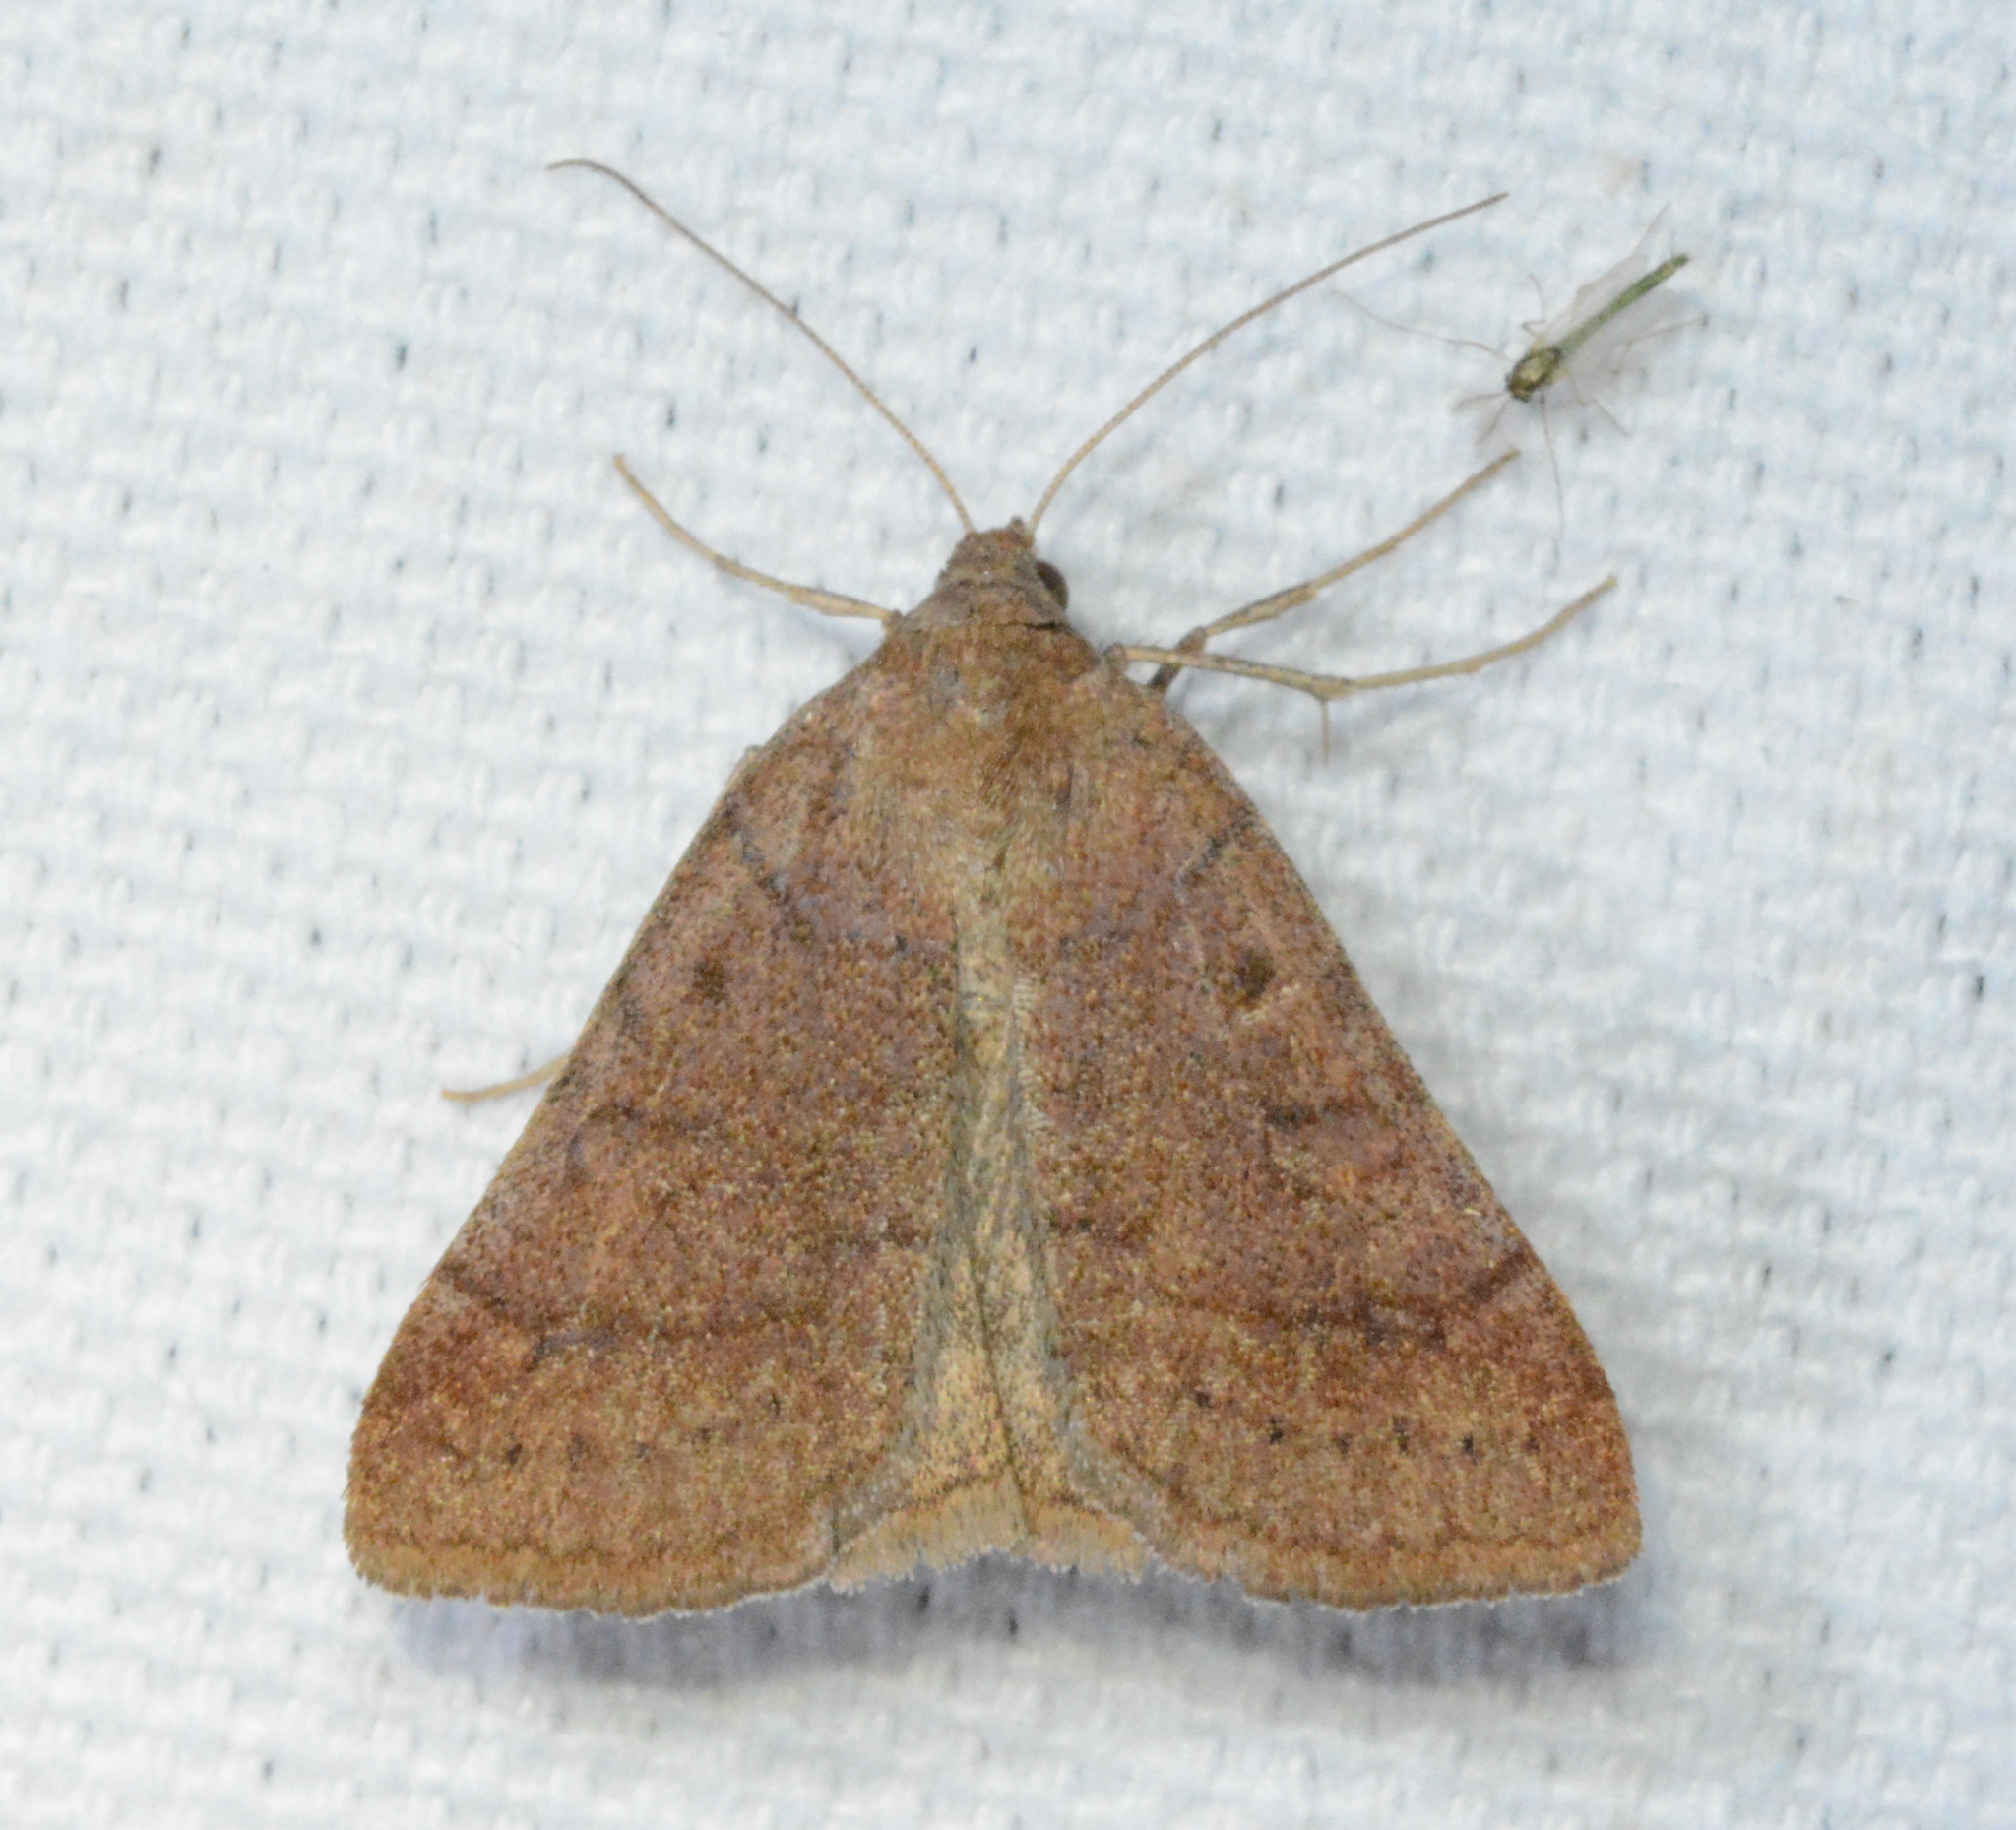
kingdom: Animalia
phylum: Arthropoda
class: Insecta
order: Lepidoptera
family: Erebidae
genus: Caenurgia
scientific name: Caenurgia chloropha
